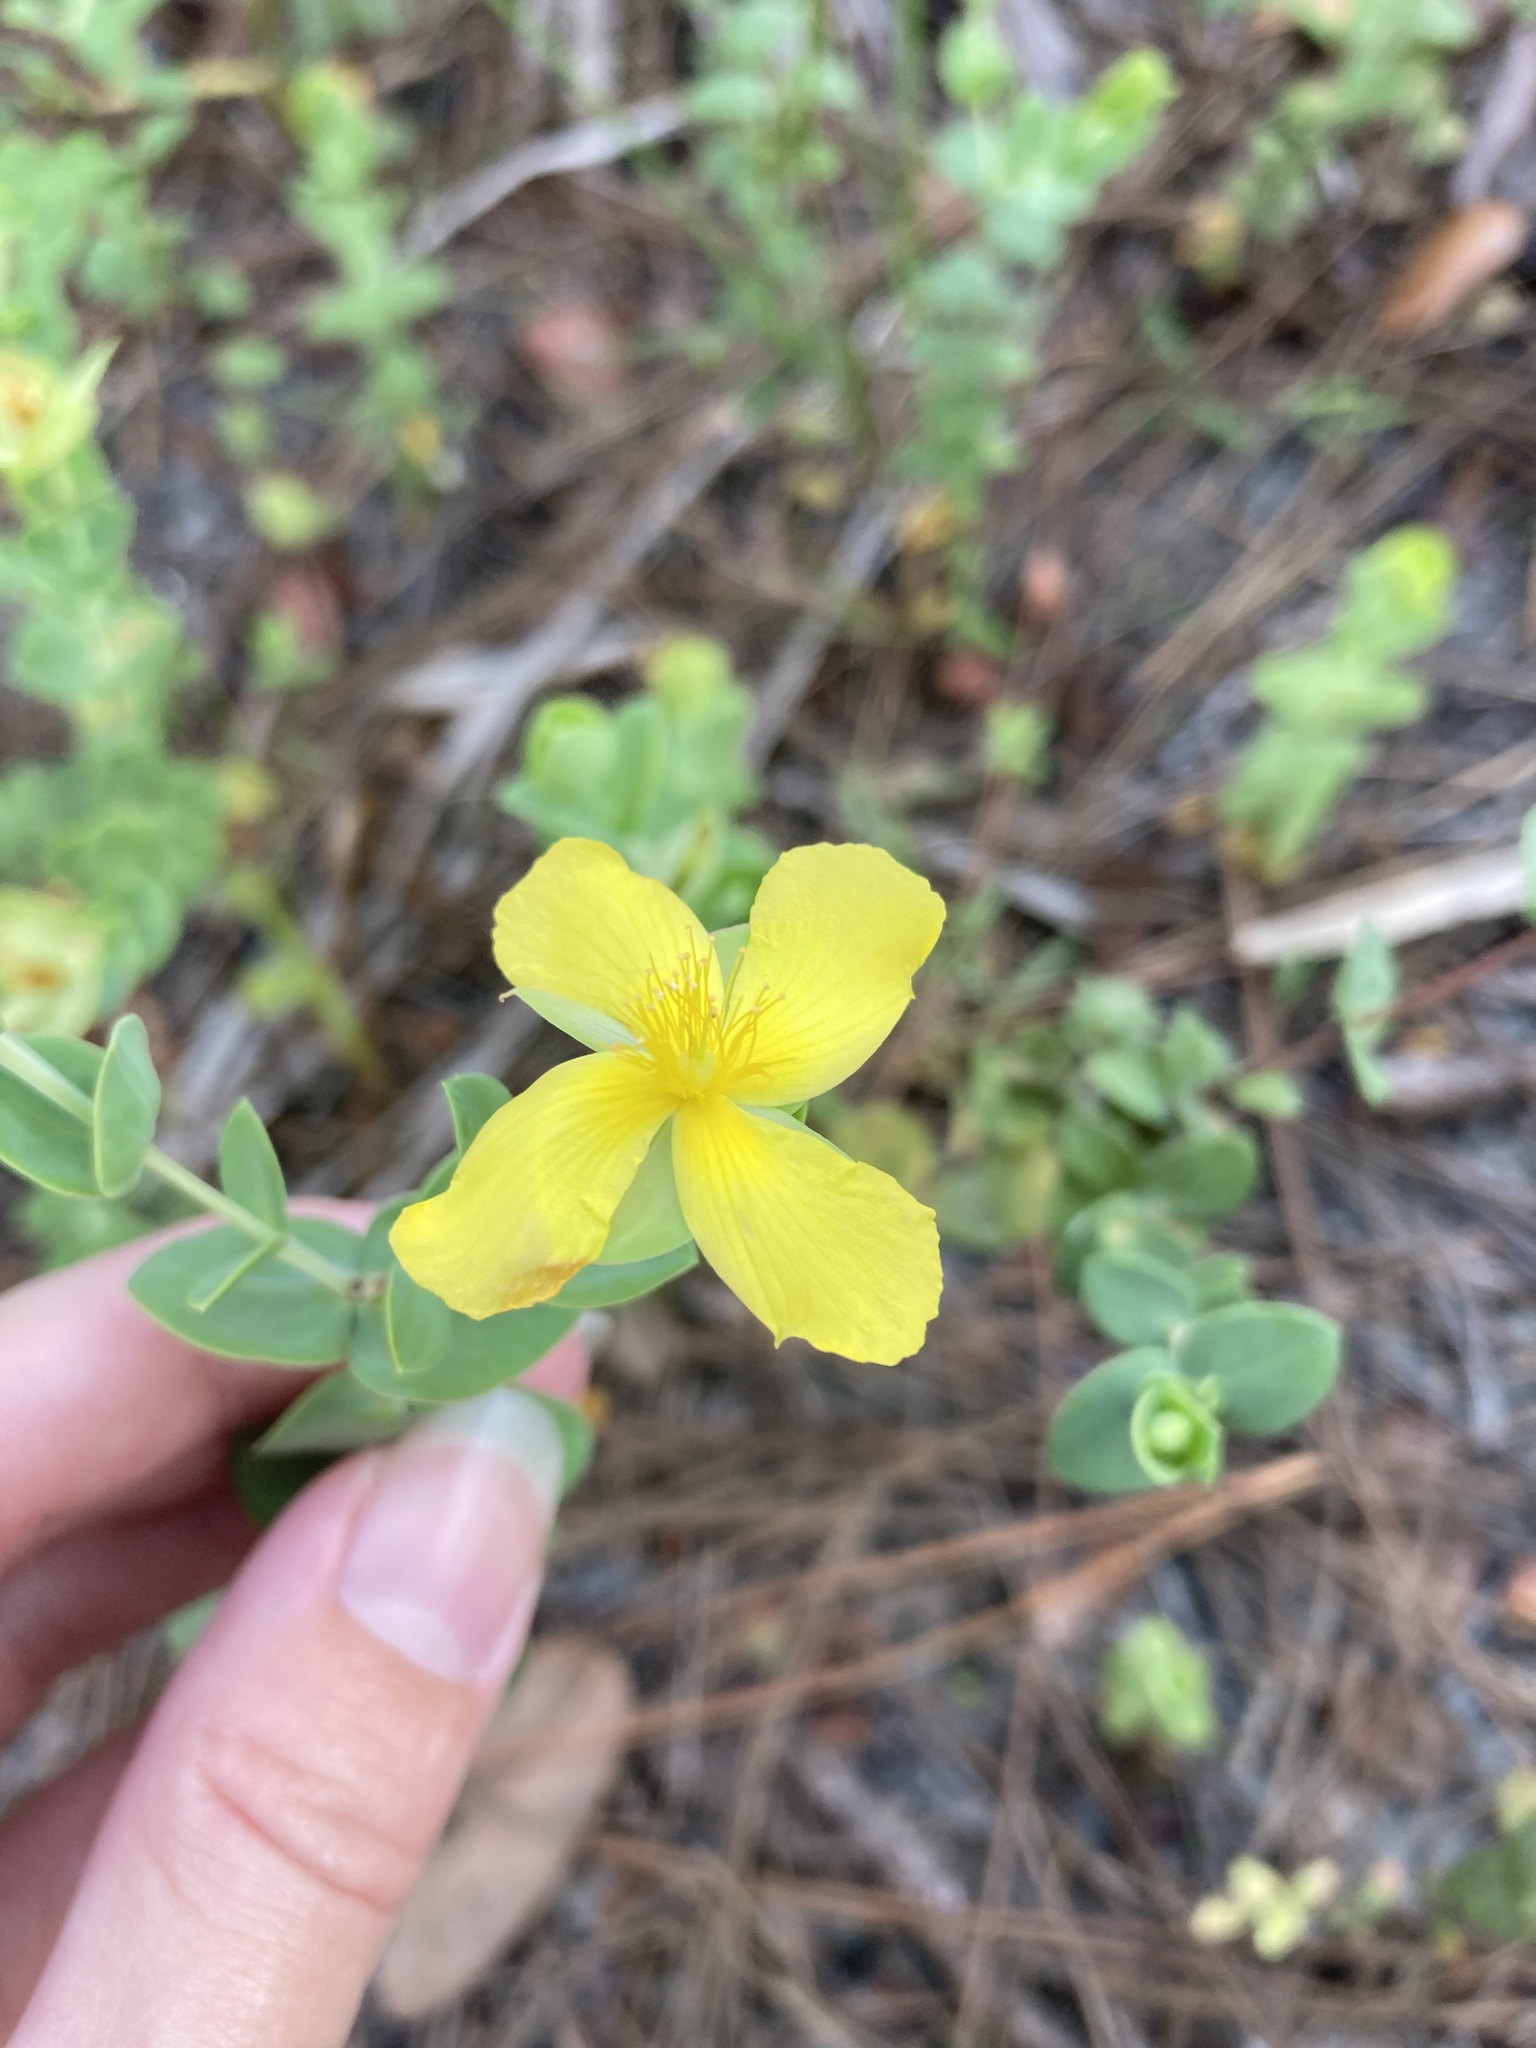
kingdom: Plantae
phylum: Tracheophyta
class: Magnoliopsida
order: Malpighiales
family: Hypericaceae
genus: Hypericum
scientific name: Hypericum tetrapetalum
